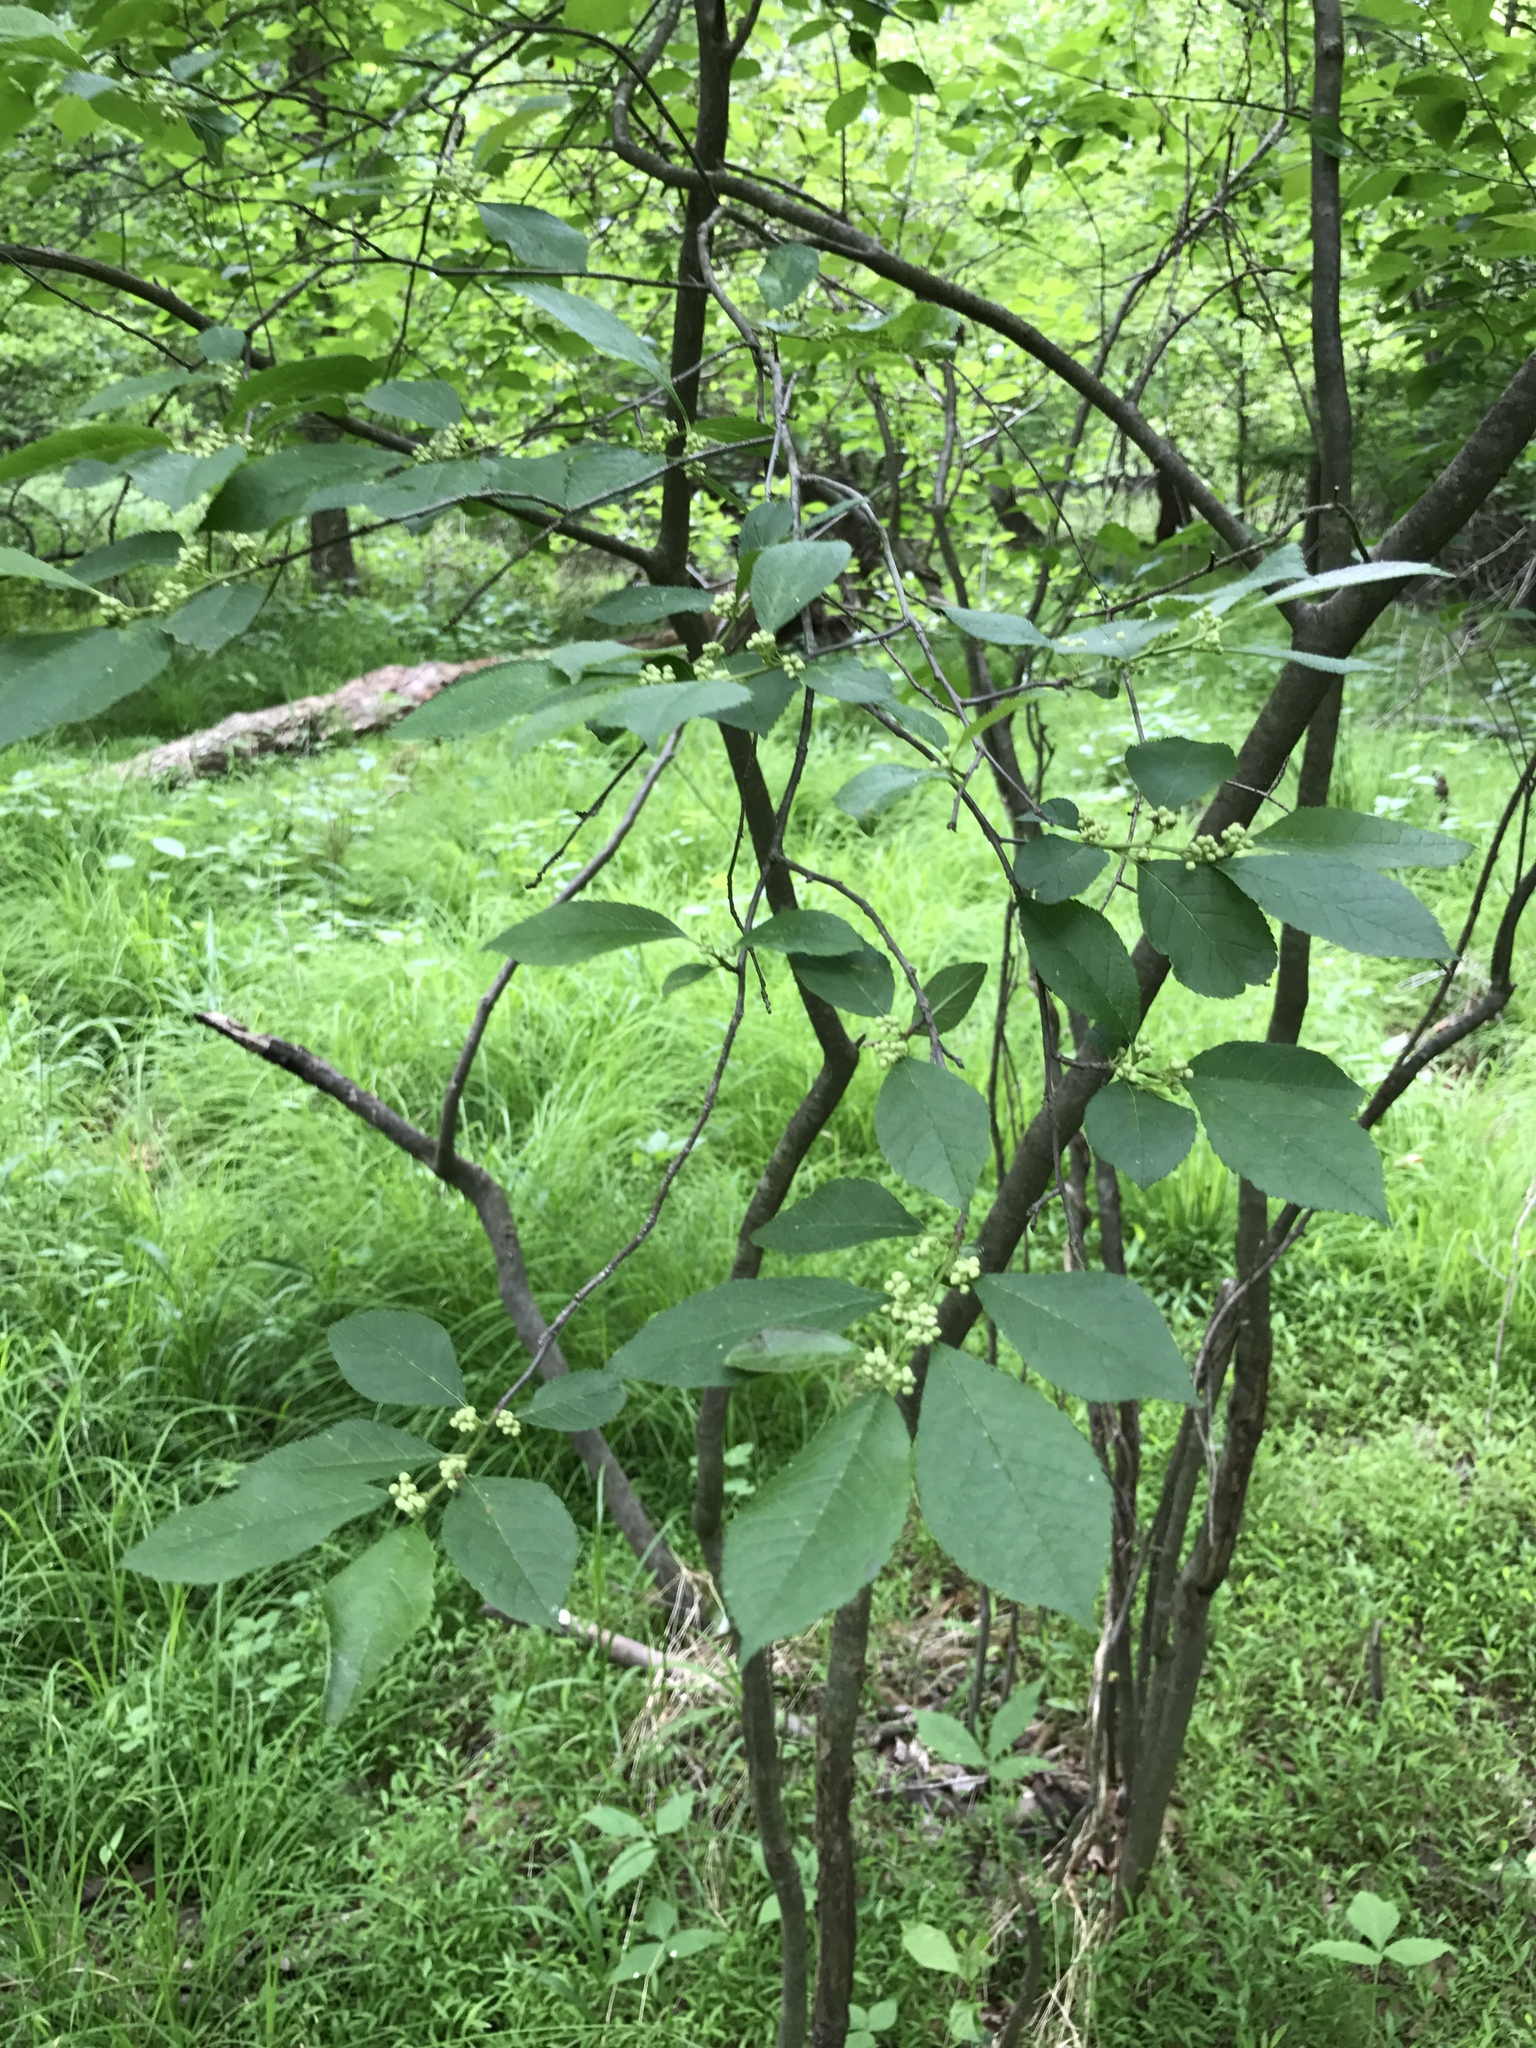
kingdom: Plantae
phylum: Tracheophyta
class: Magnoliopsida
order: Aquifoliales
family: Aquifoliaceae
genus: Ilex
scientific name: Ilex verticillata
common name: Virginia winterberry
